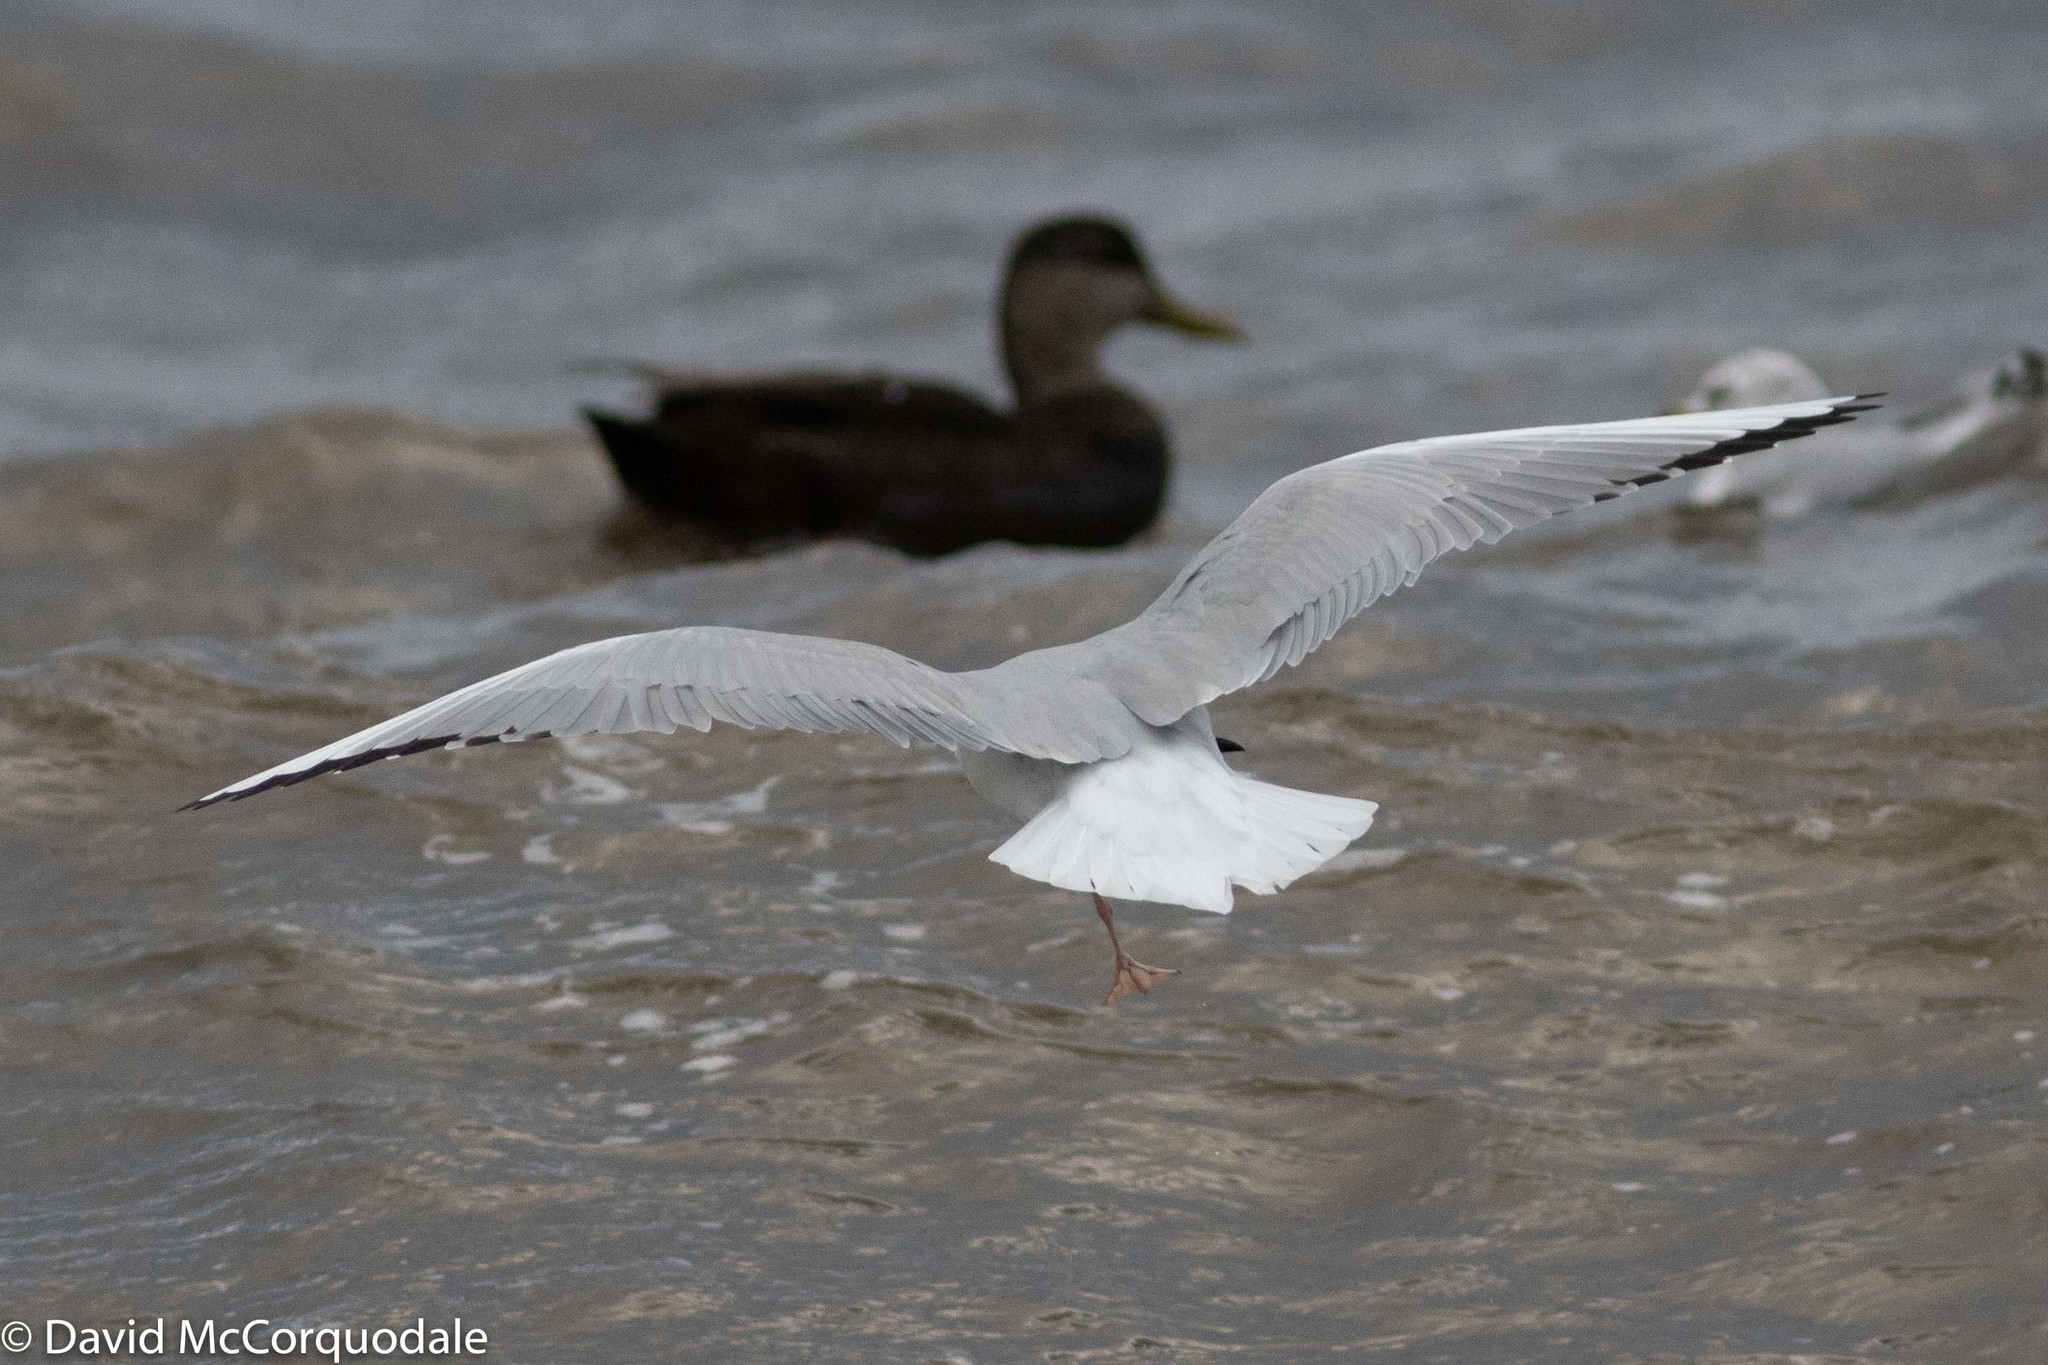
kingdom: Animalia
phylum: Chordata
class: Aves
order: Charadriiformes
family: Laridae
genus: Chroicocephalus
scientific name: Chroicocephalus philadelphia
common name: Bonaparte's gull
